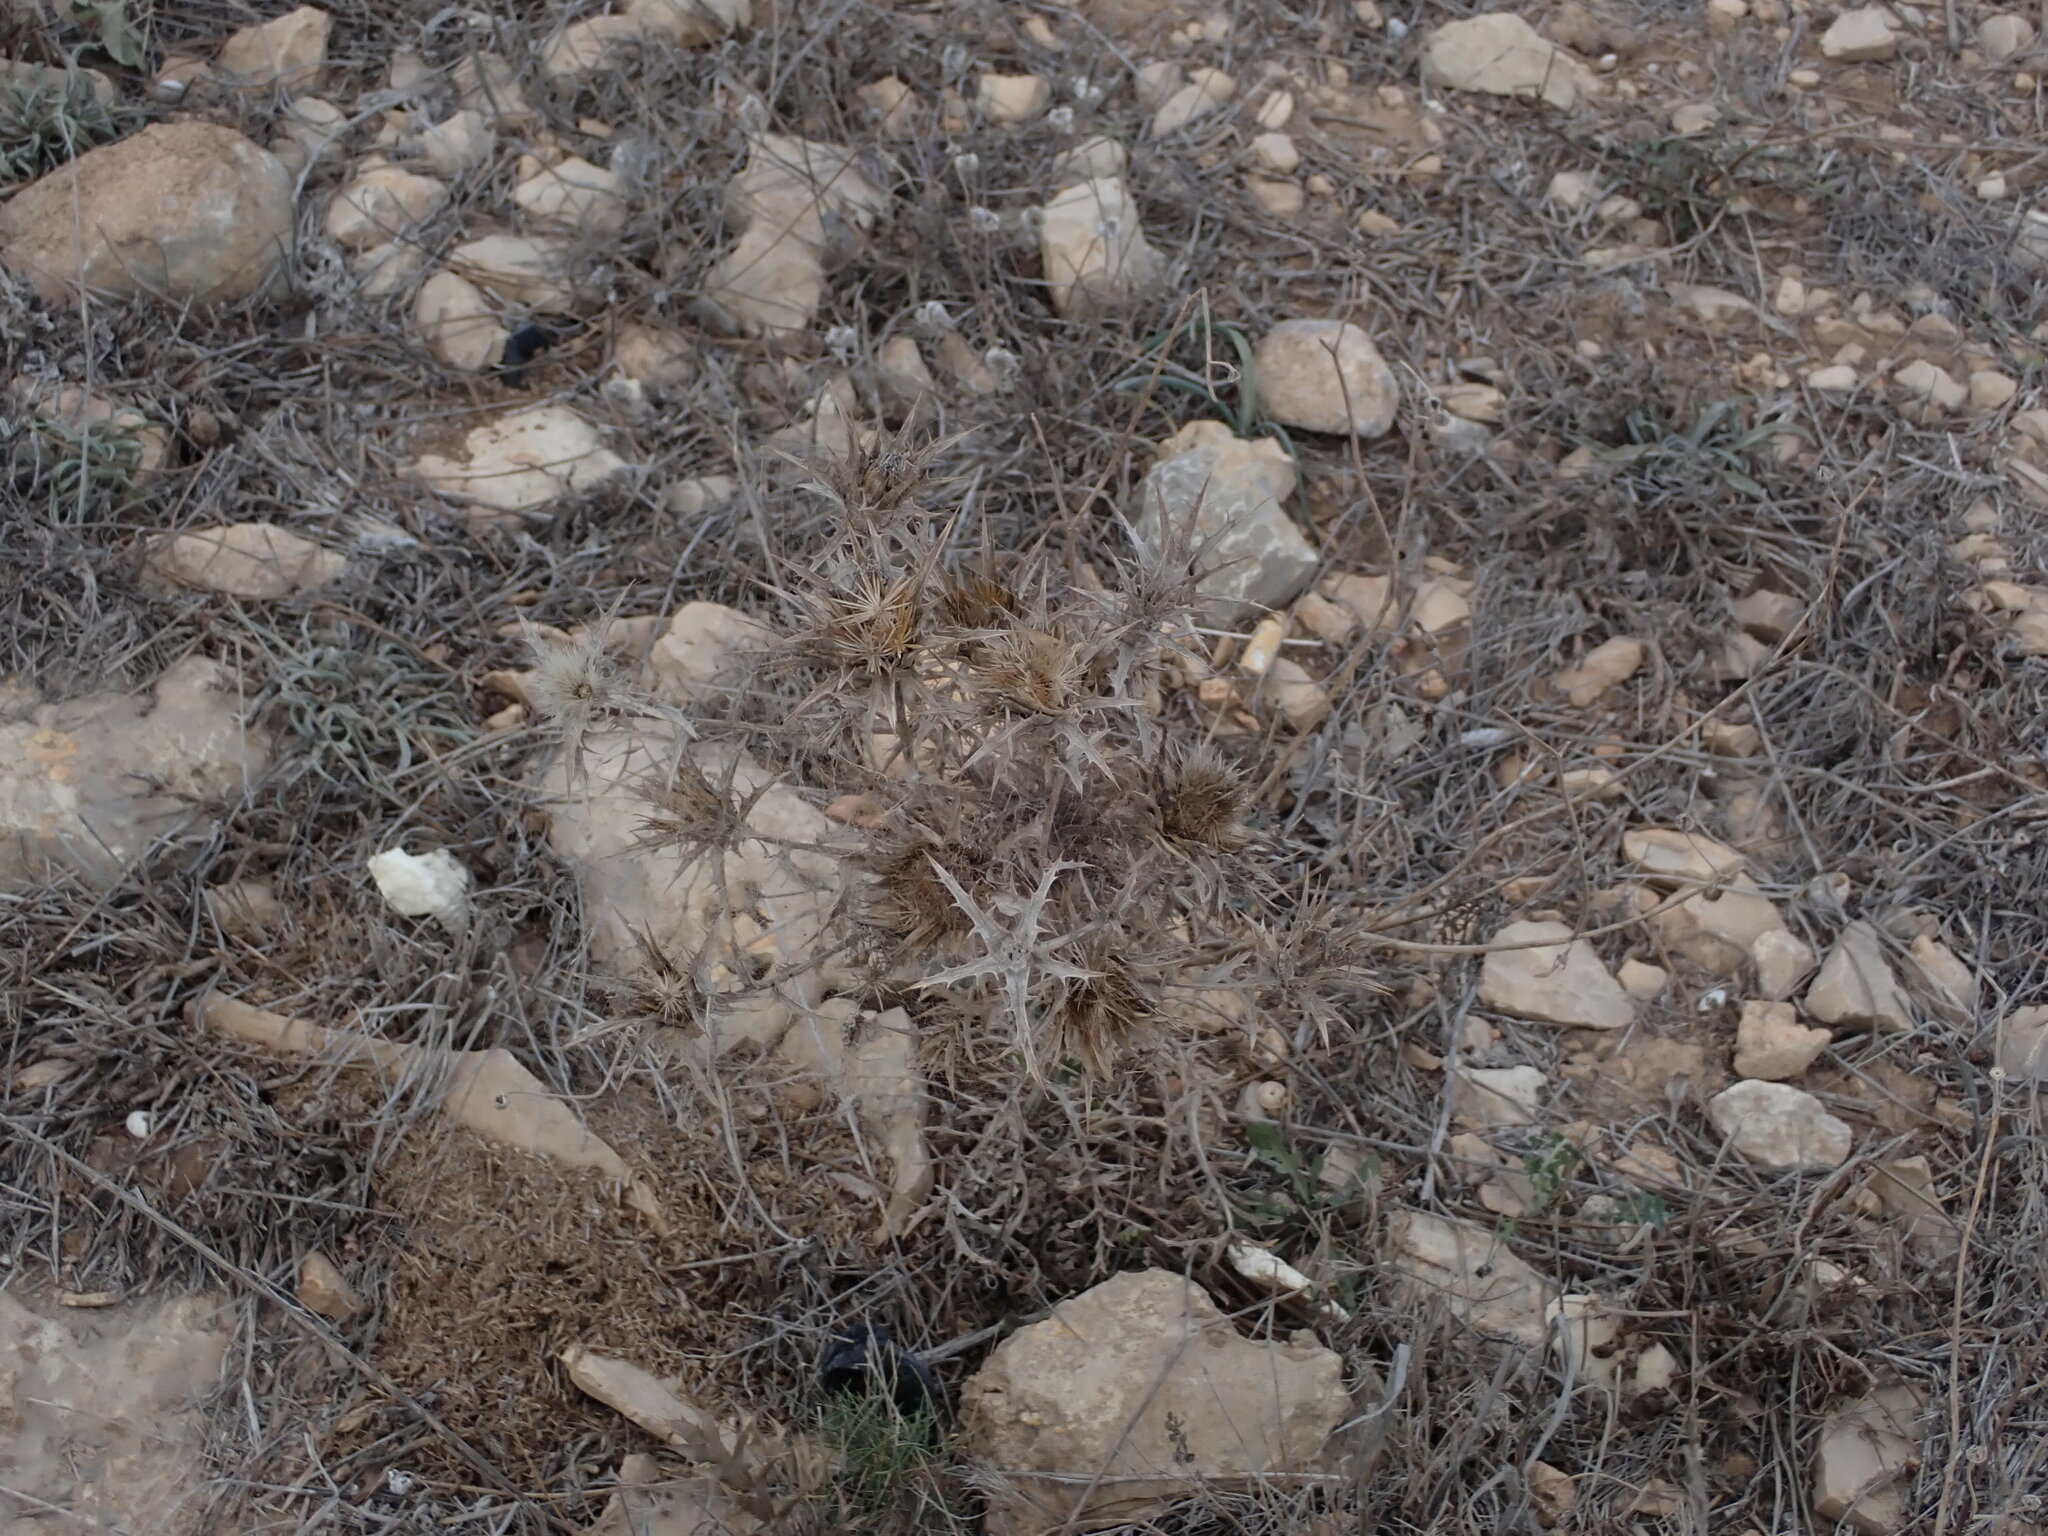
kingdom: Plantae
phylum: Tracheophyta
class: Magnoliopsida
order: Apiales
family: Apiaceae
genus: Eryngium
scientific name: Eryngium campestre
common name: Field eryngo
